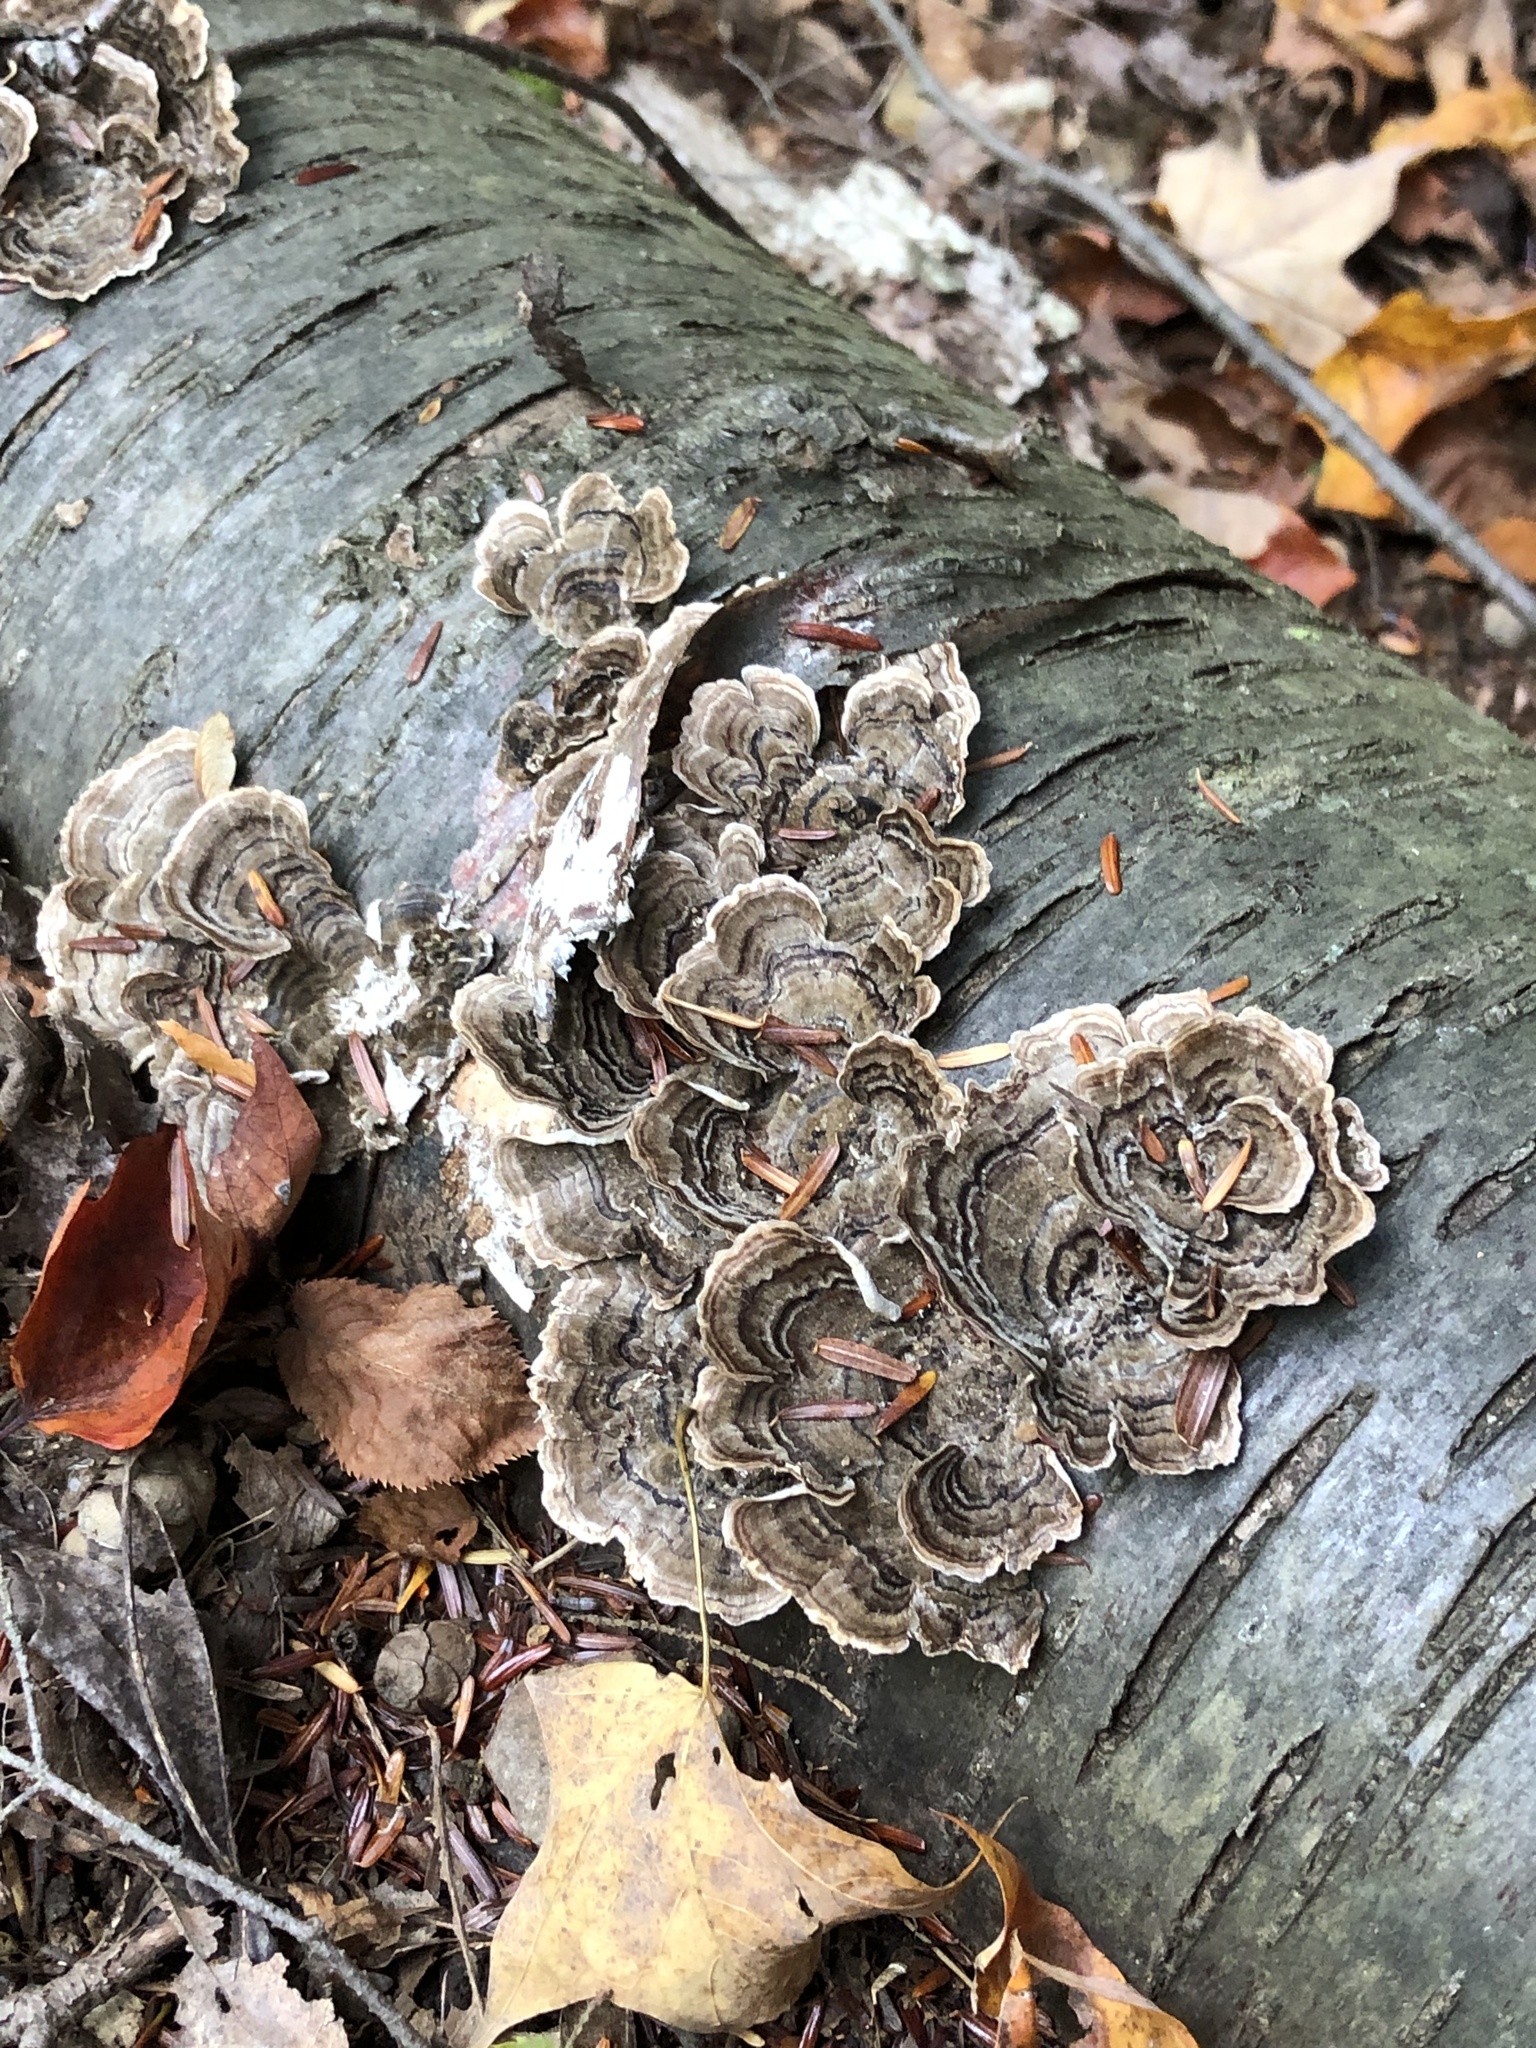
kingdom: Fungi
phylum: Basidiomycota
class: Agaricomycetes
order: Polyporales
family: Polyporaceae
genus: Trametes
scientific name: Trametes versicolor
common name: Turkeytail
